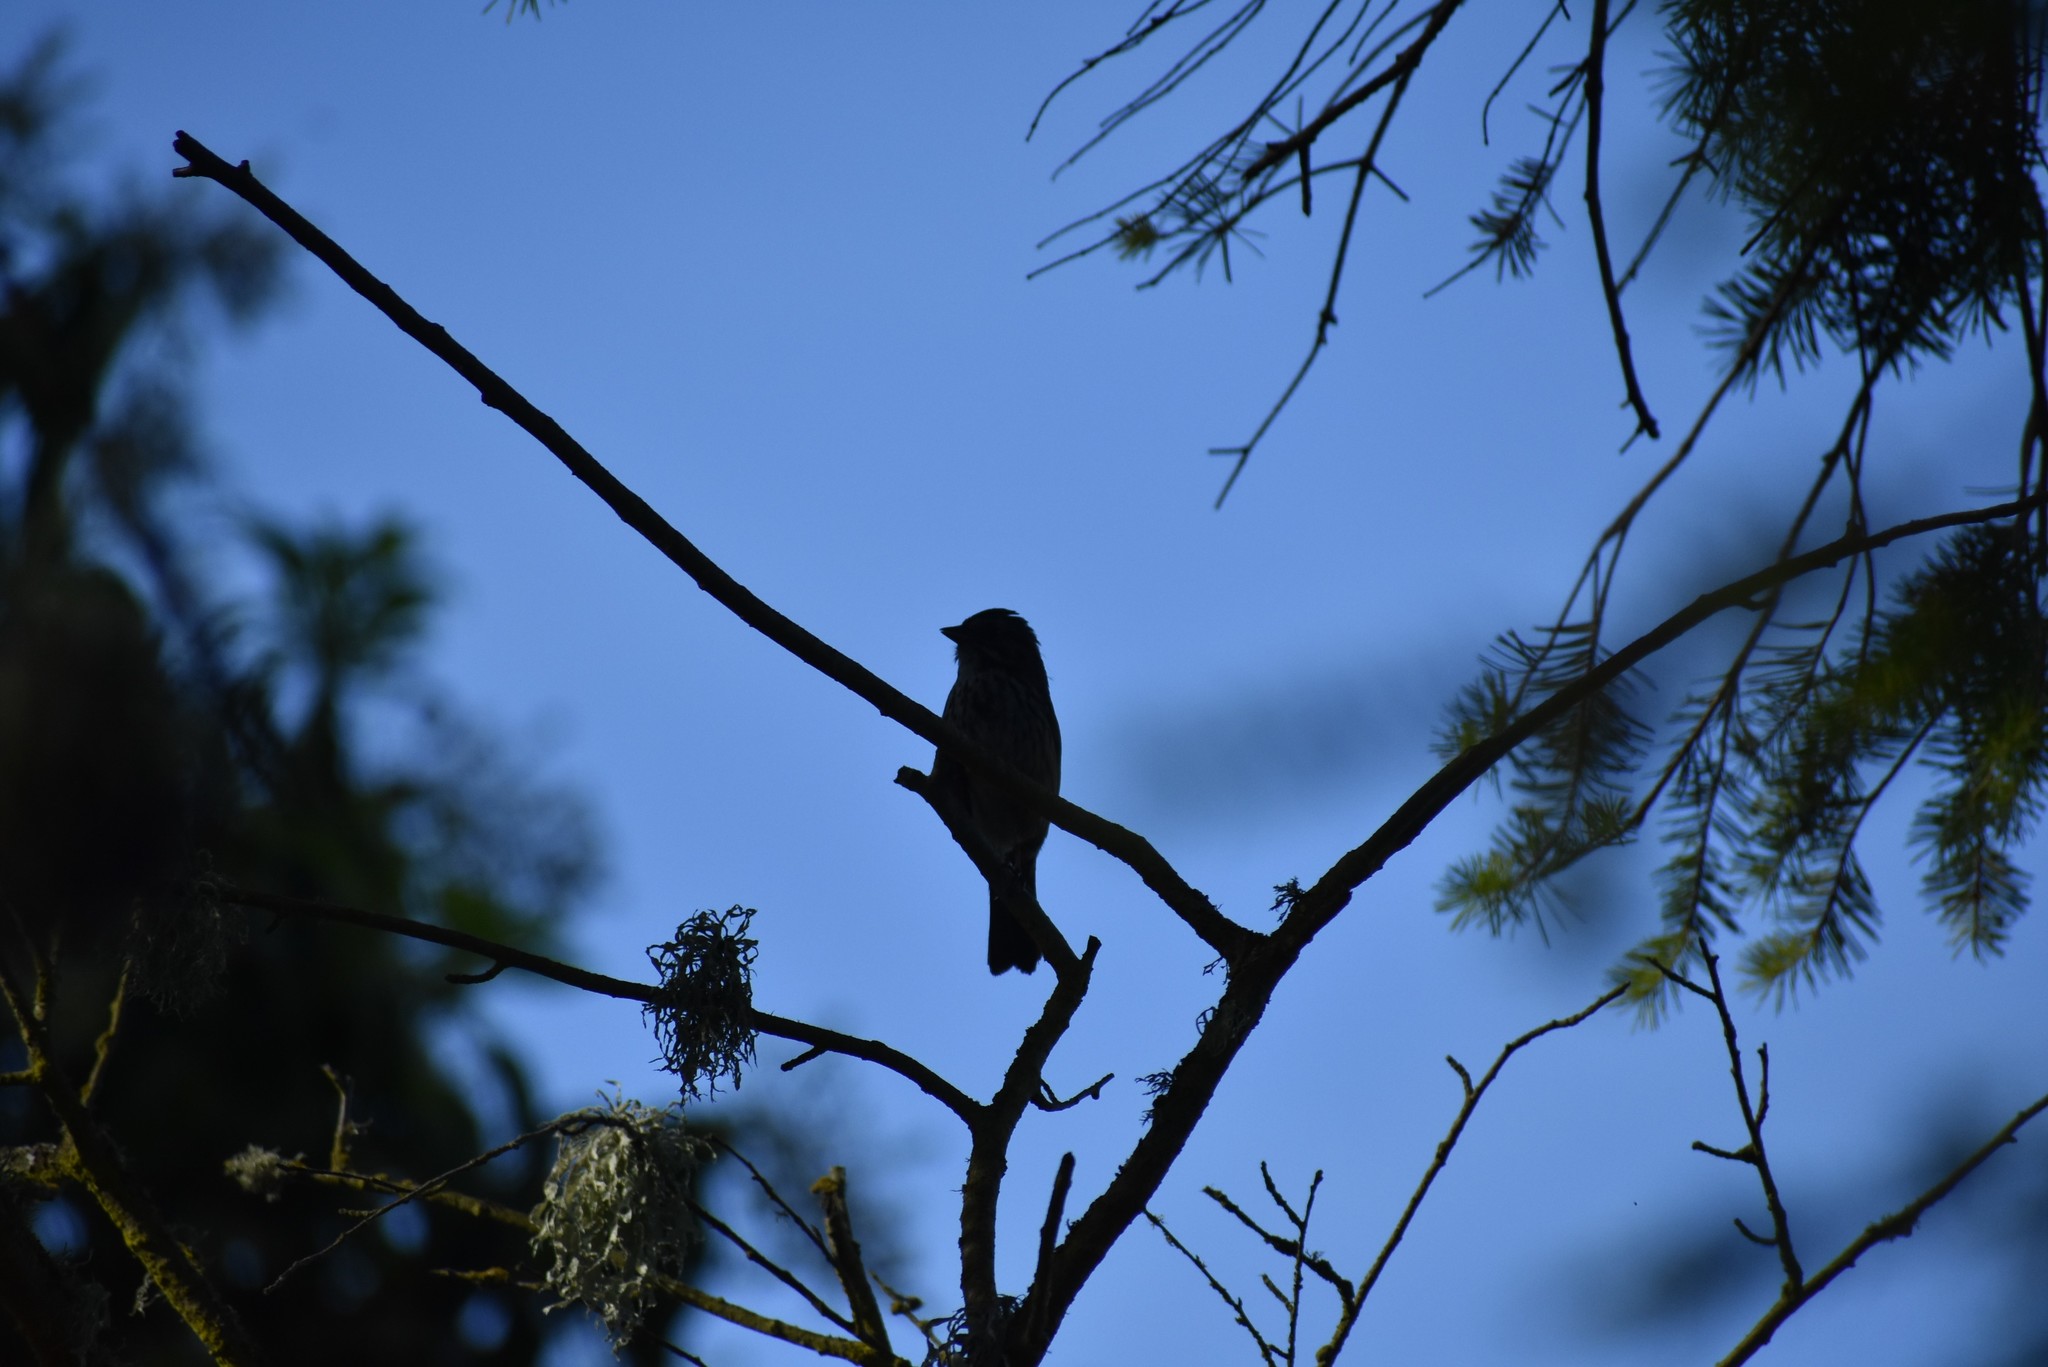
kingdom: Animalia
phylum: Chordata
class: Aves
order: Passeriformes
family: Passerellidae
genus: Melospiza
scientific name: Melospiza melodia
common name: Song sparrow
